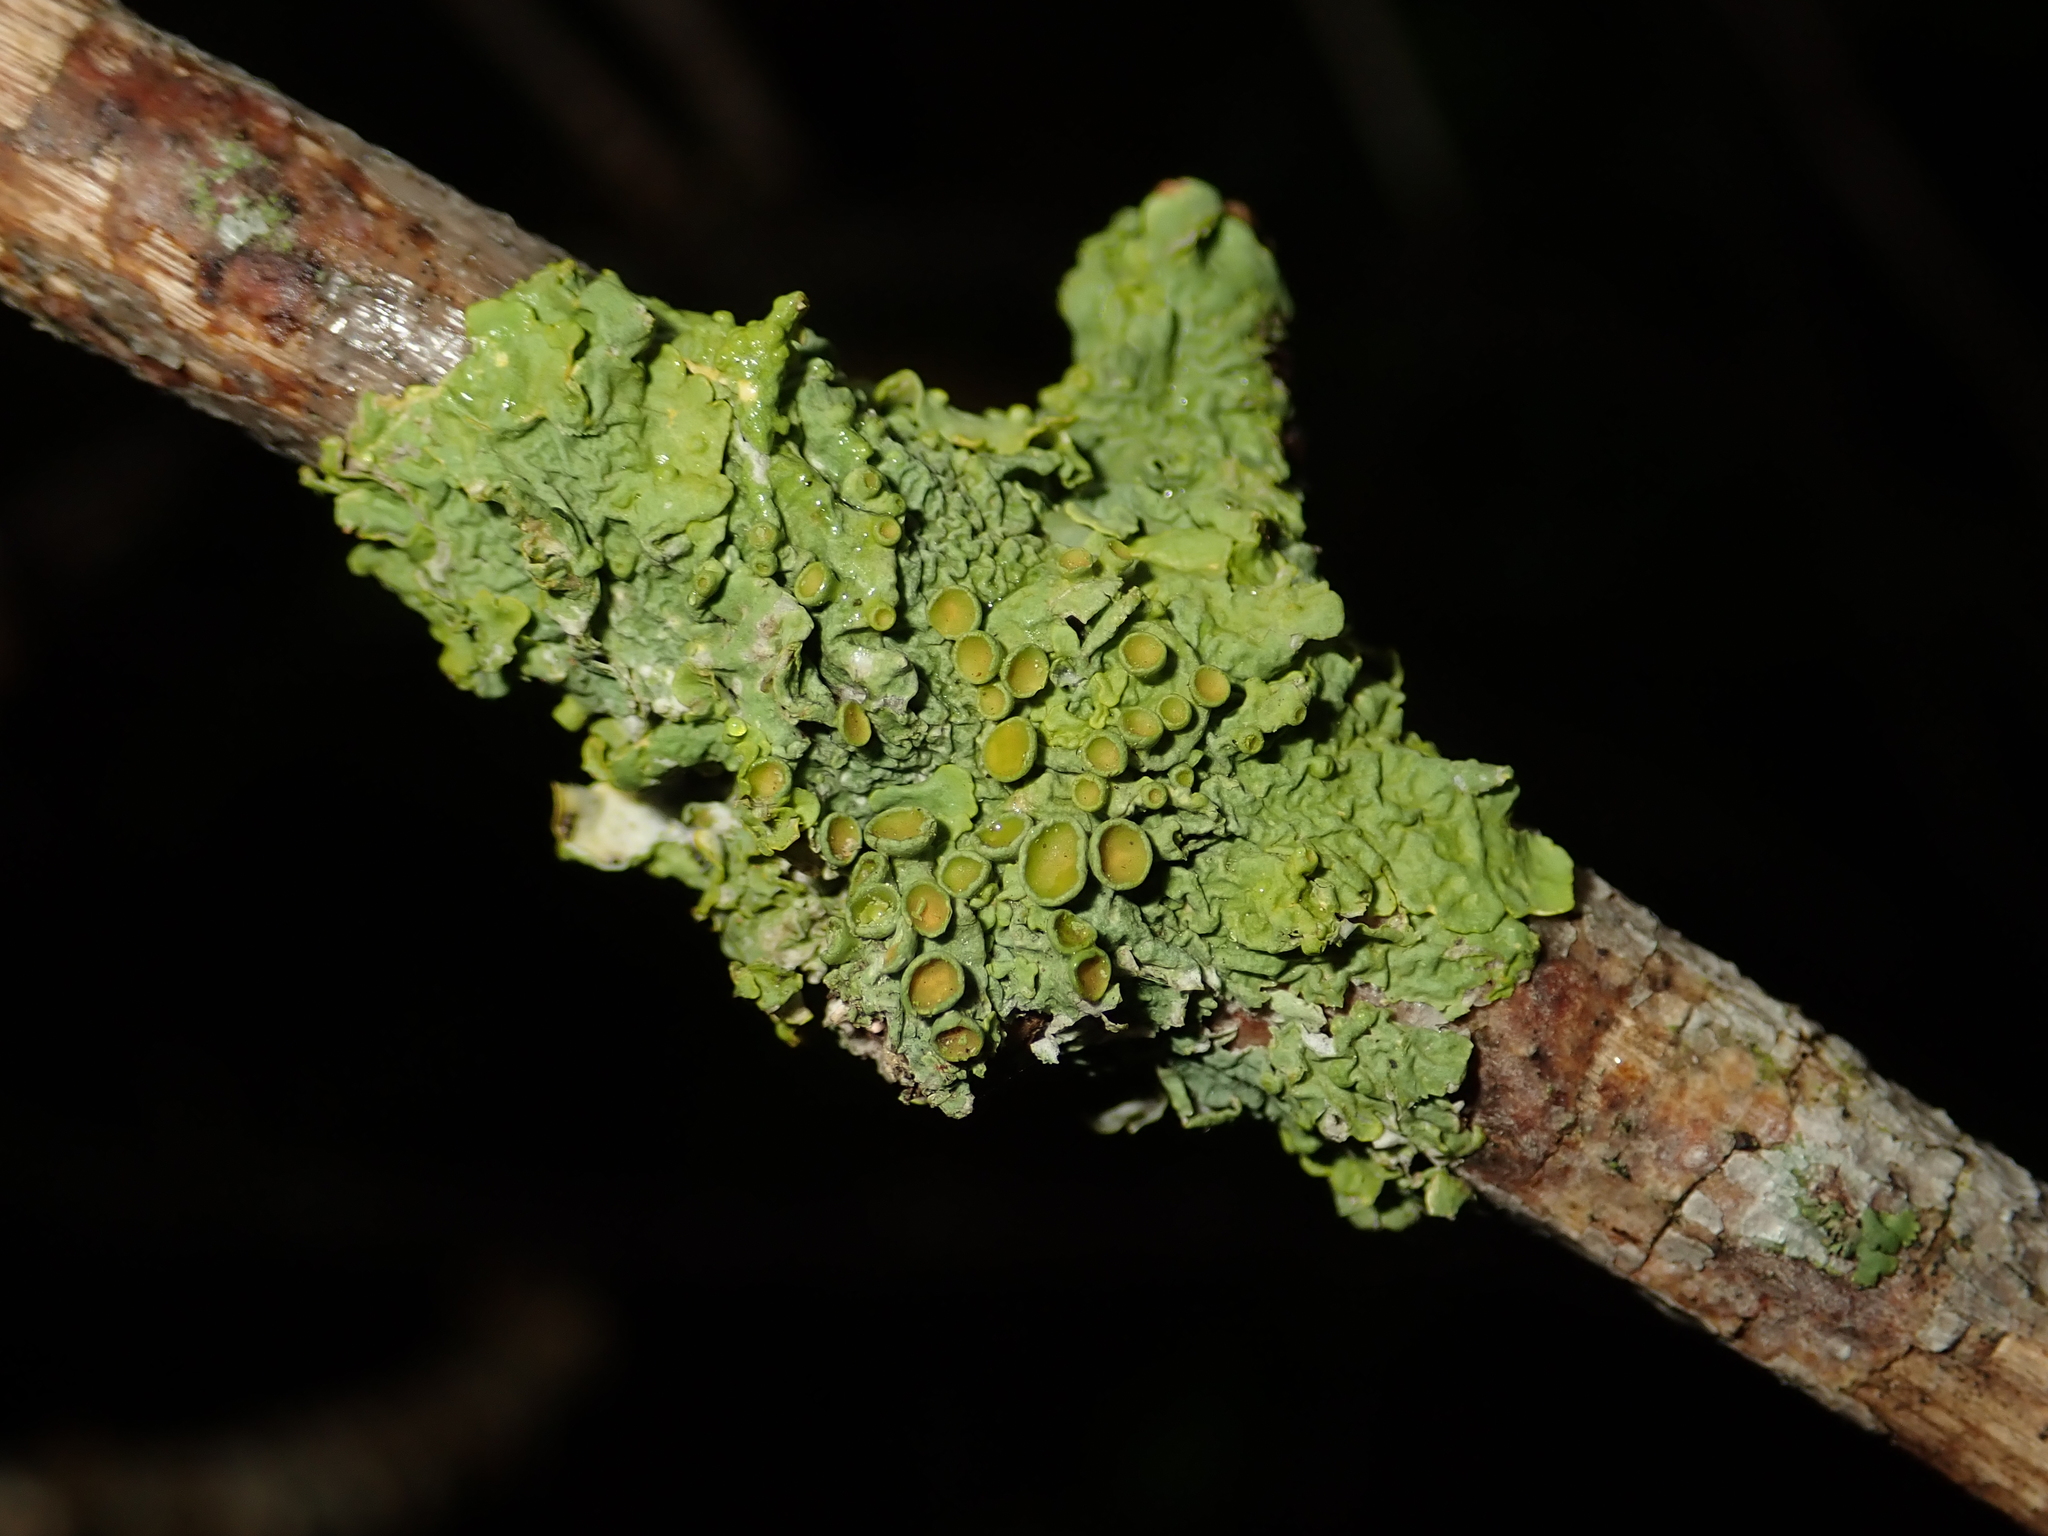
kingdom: Fungi
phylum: Ascomycota
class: Lecanoromycetes
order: Teloschistales
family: Teloschistaceae
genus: Xanthoria
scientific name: Xanthoria parietina
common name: Common orange lichen
